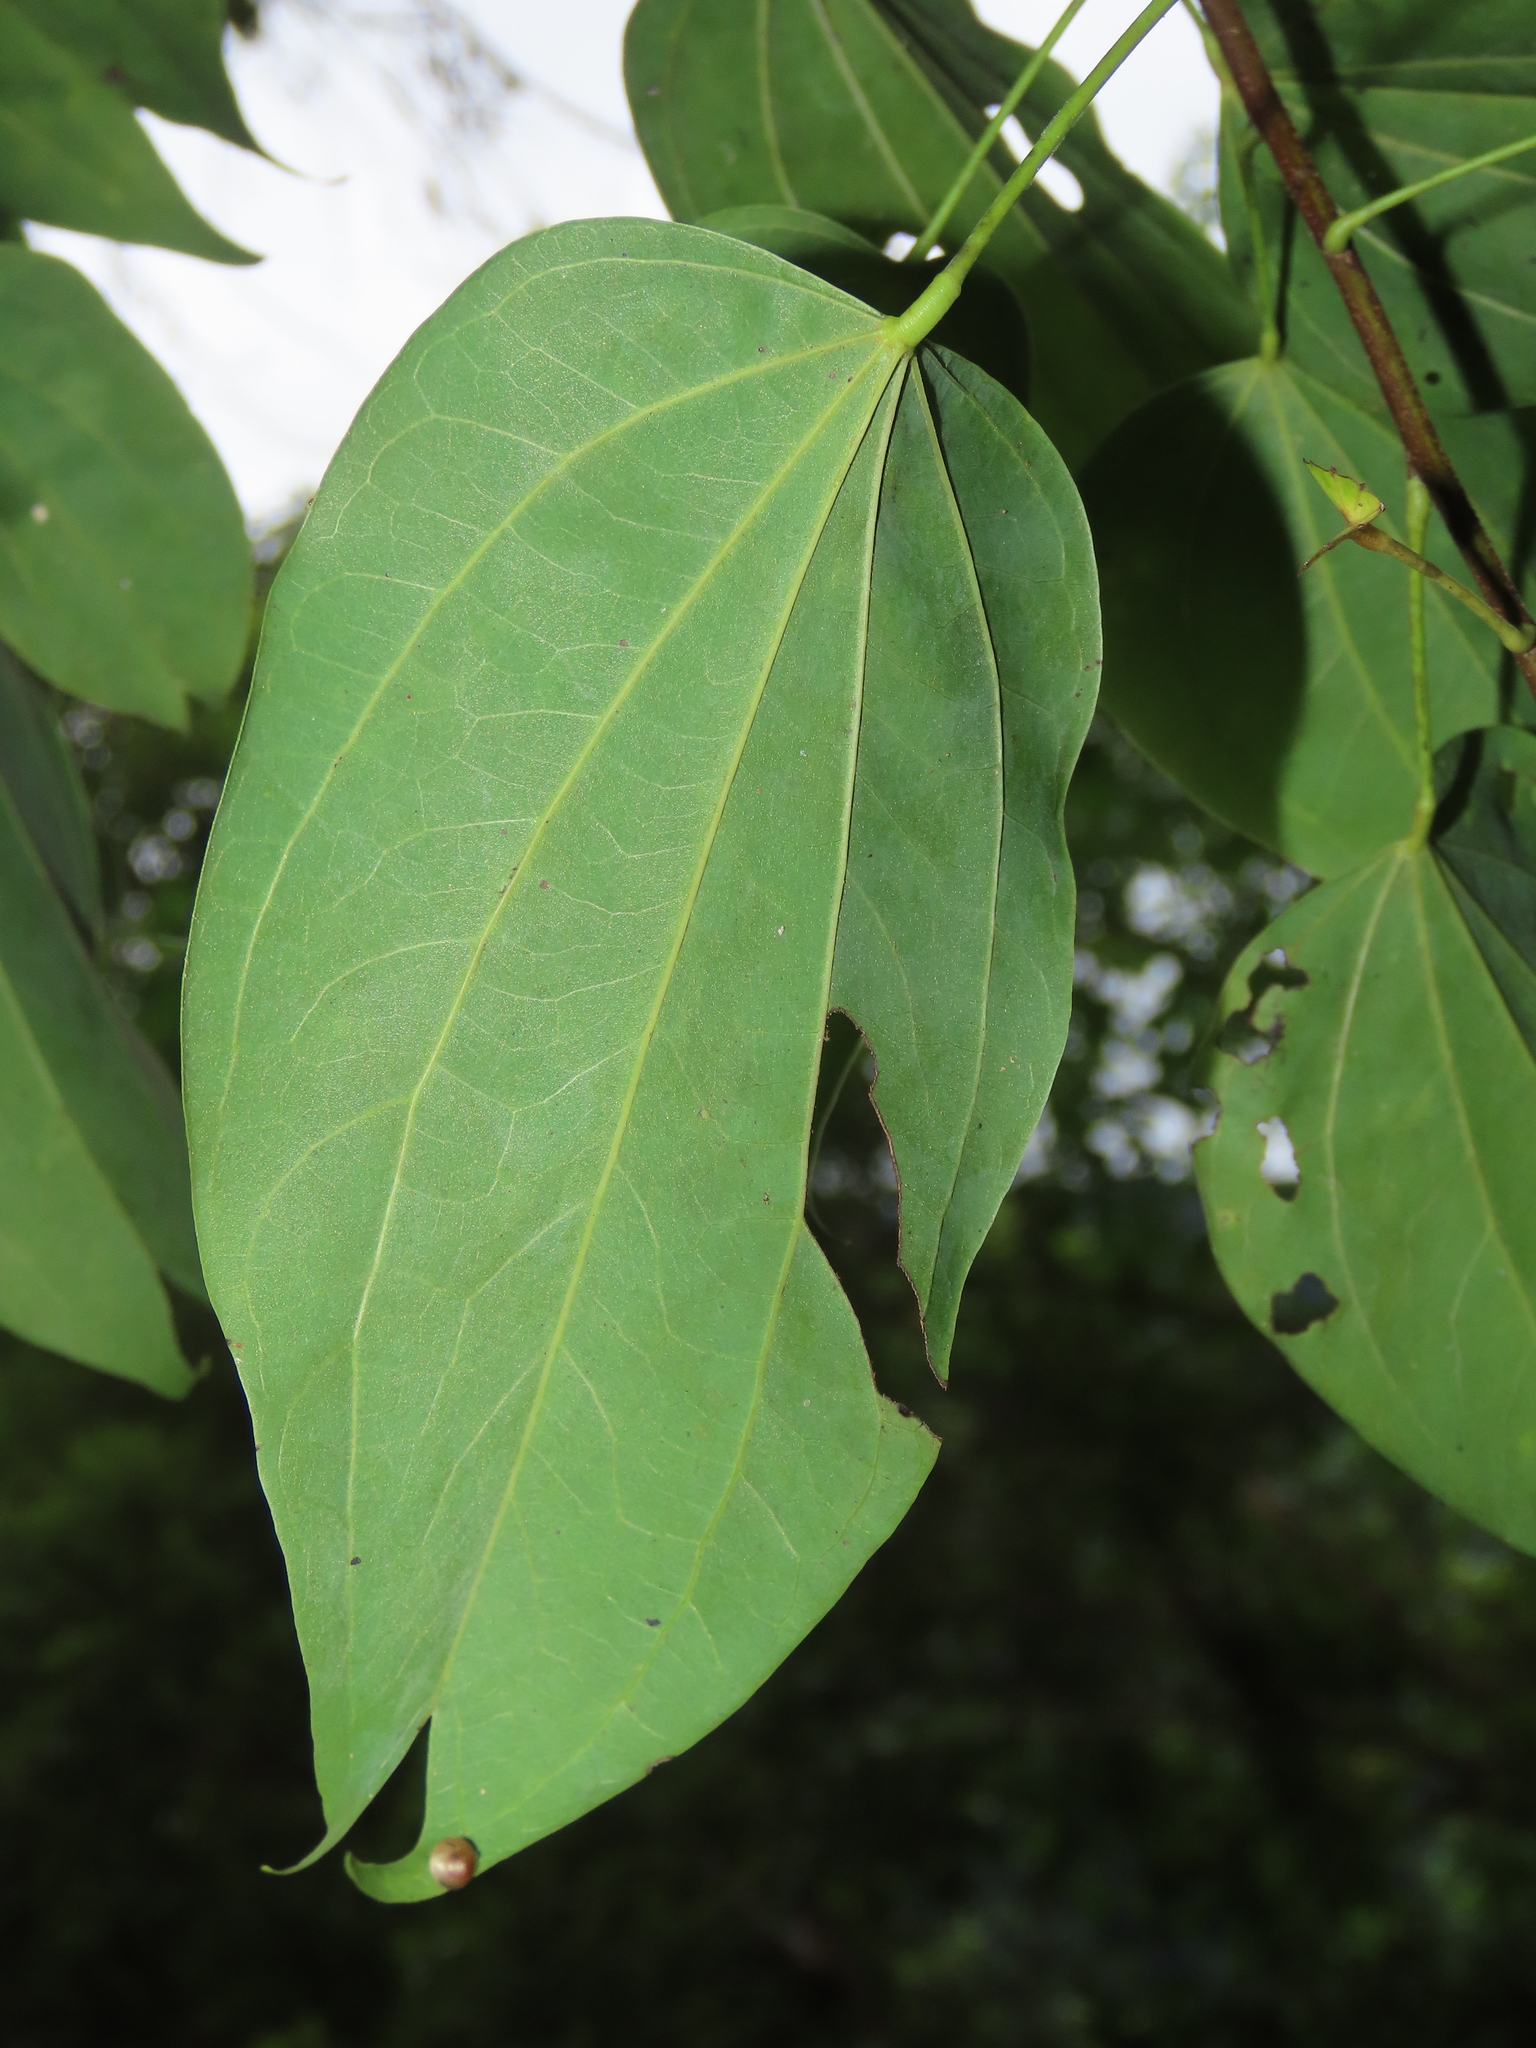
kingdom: Plantae
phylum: Tracheophyta
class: Magnoliopsida
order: Fabales
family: Fabaceae
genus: Phanera
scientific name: Phanera championii
